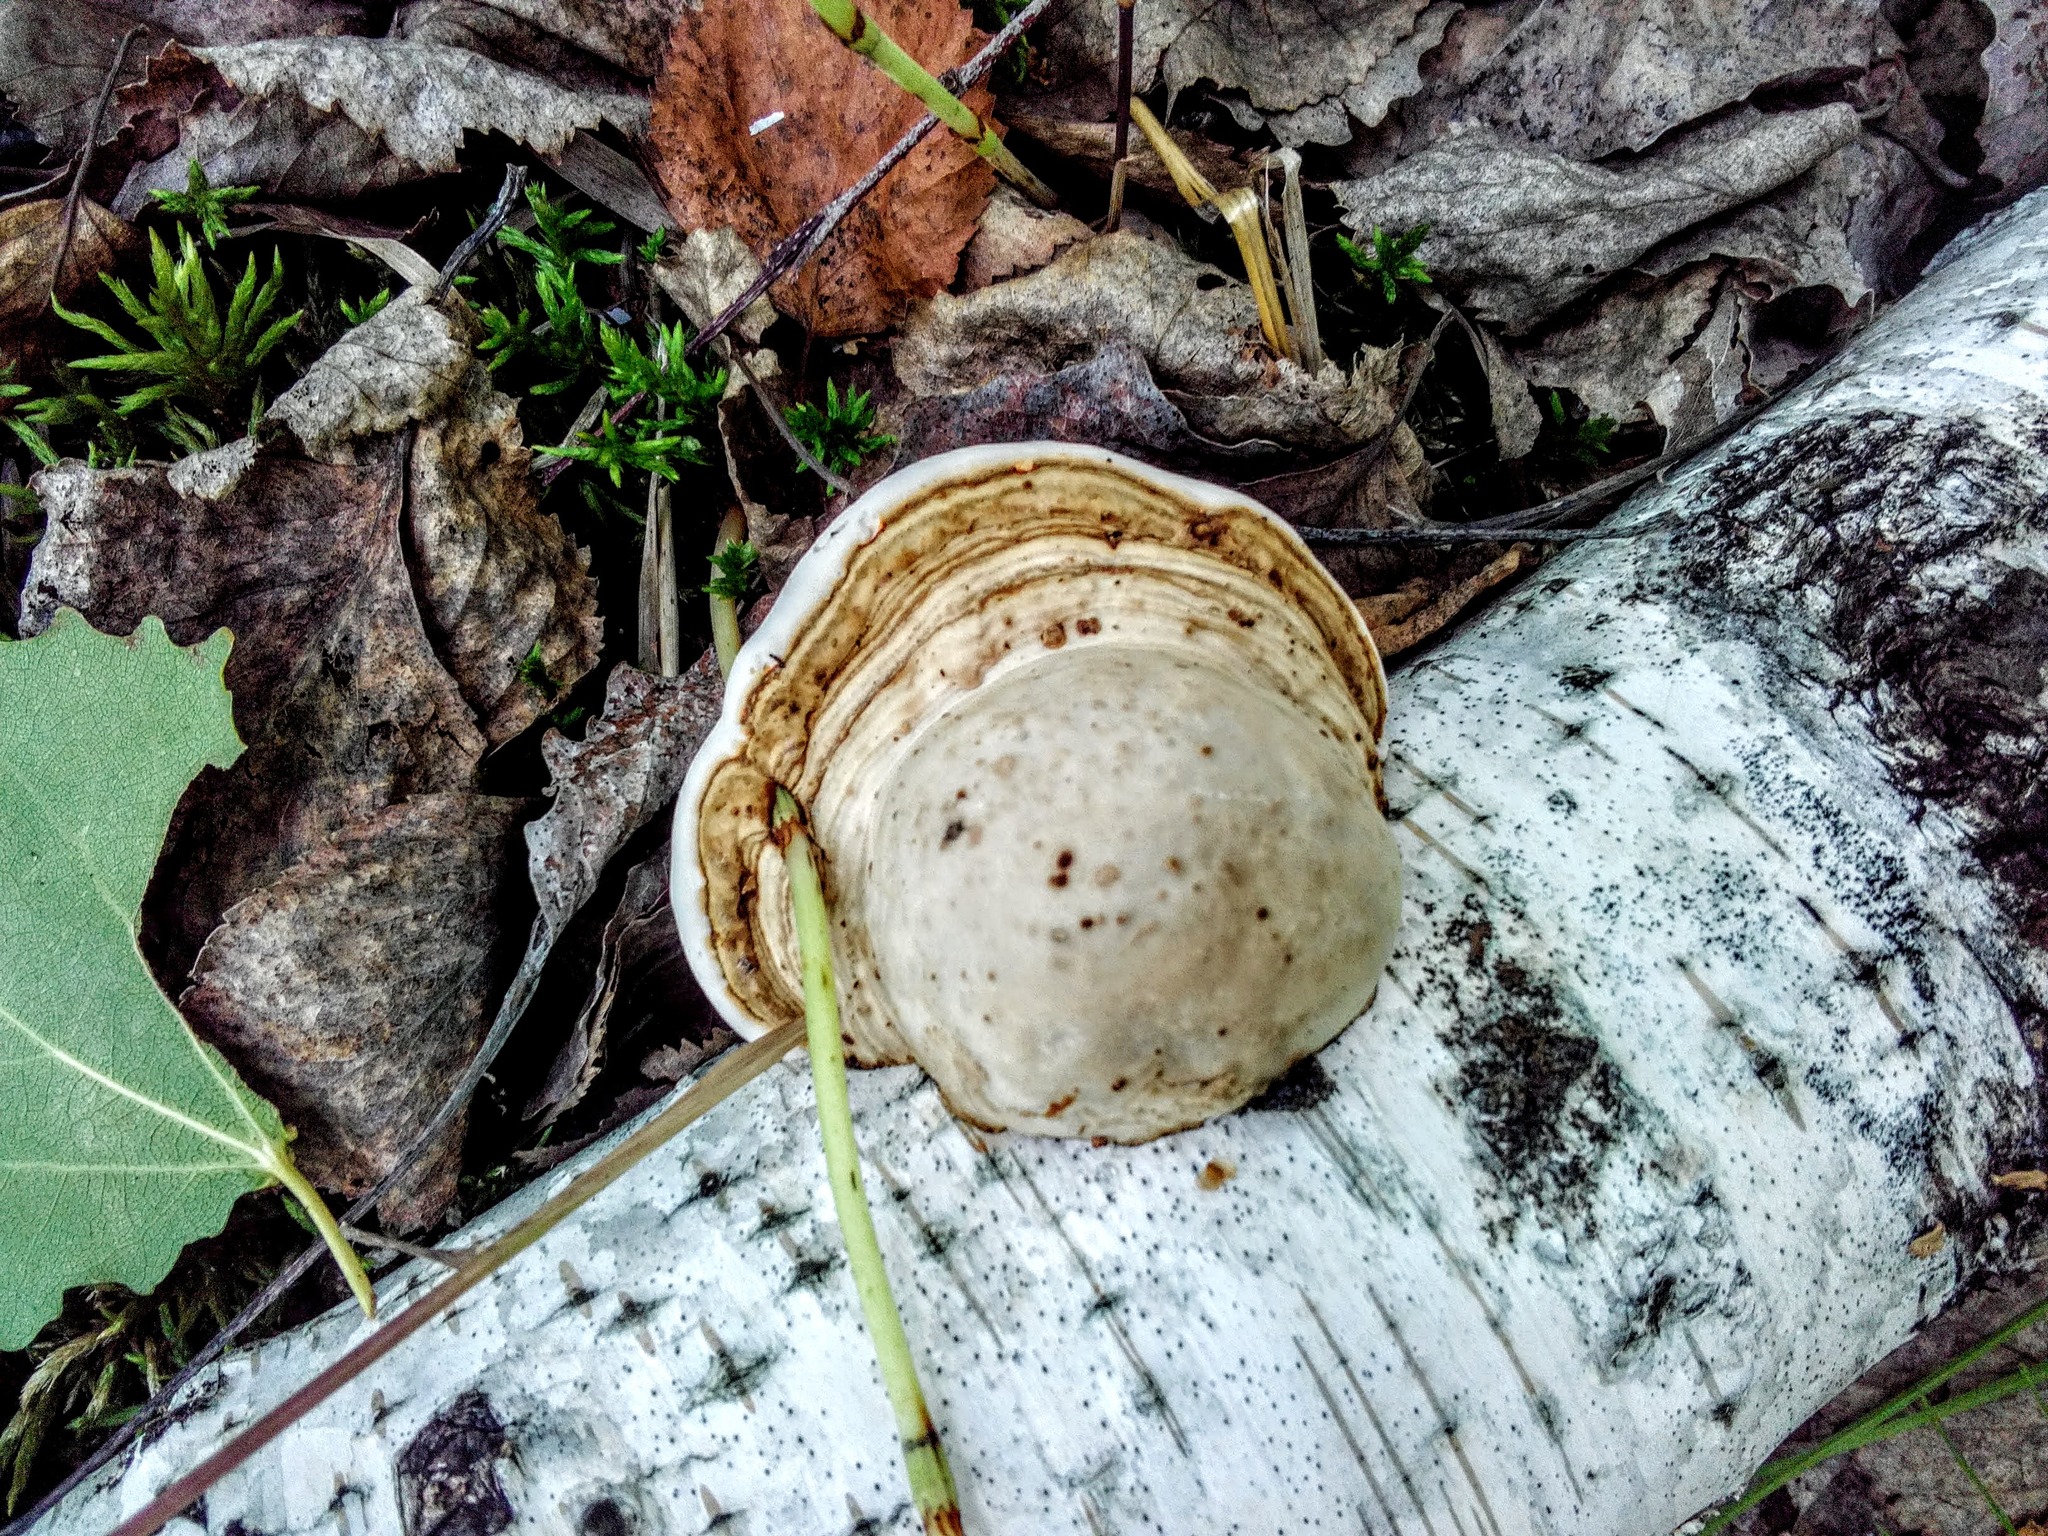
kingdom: Fungi
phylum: Basidiomycota
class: Agaricomycetes
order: Polyporales
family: Polyporaceae
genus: Fomes
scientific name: Fomes fomentarius
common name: Hoof fungus
